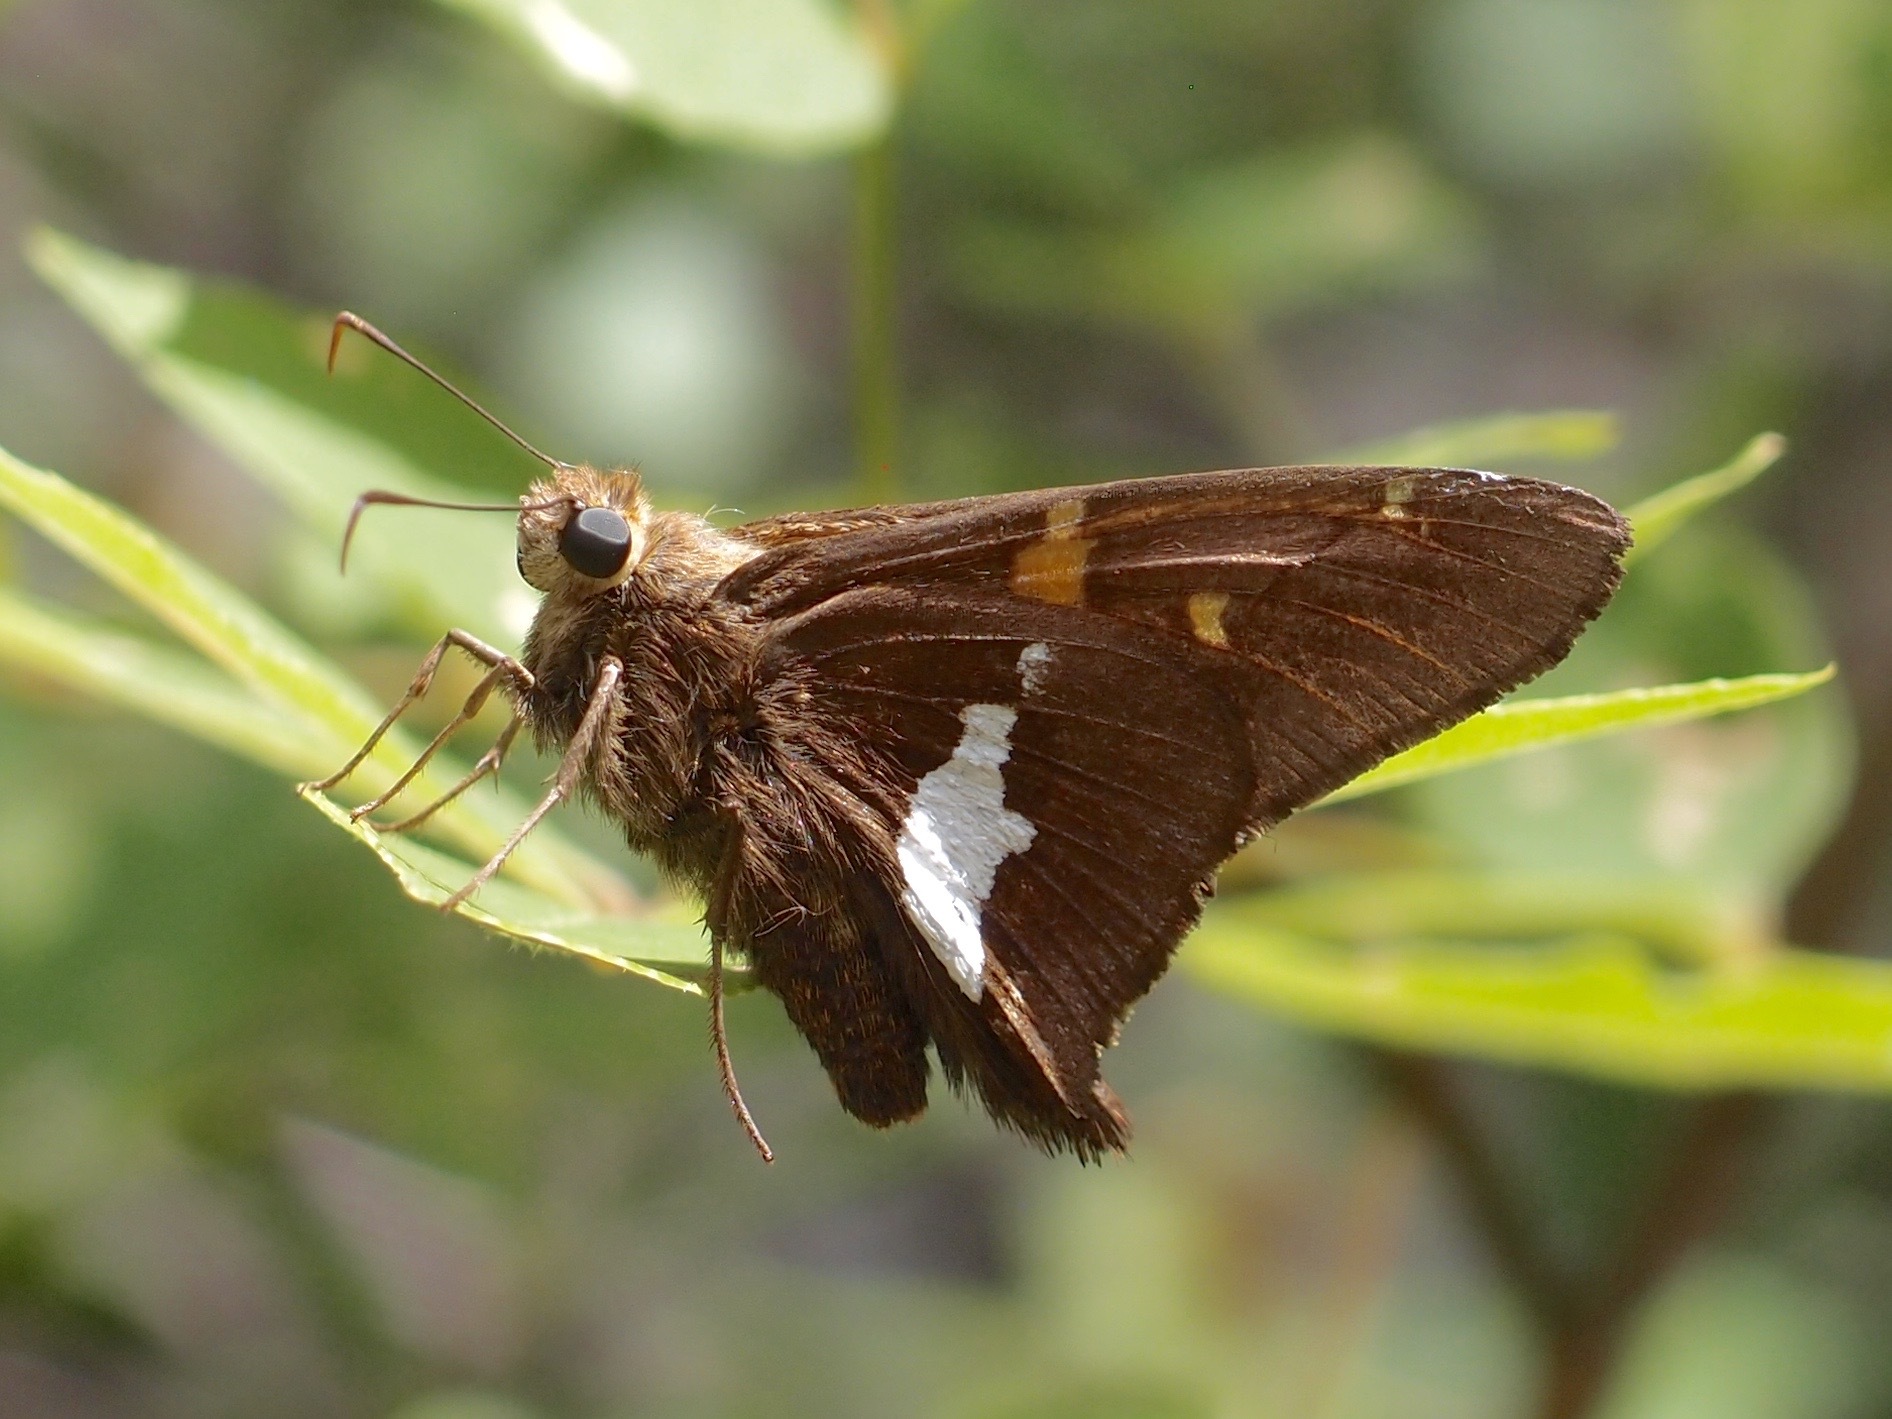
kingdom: Animalia
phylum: Arthropoda
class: Insecta
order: Lepidoptera
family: Hesperiidae
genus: Epargyreus
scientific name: Epargyreus clarus
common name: Silver-spotted skipper
